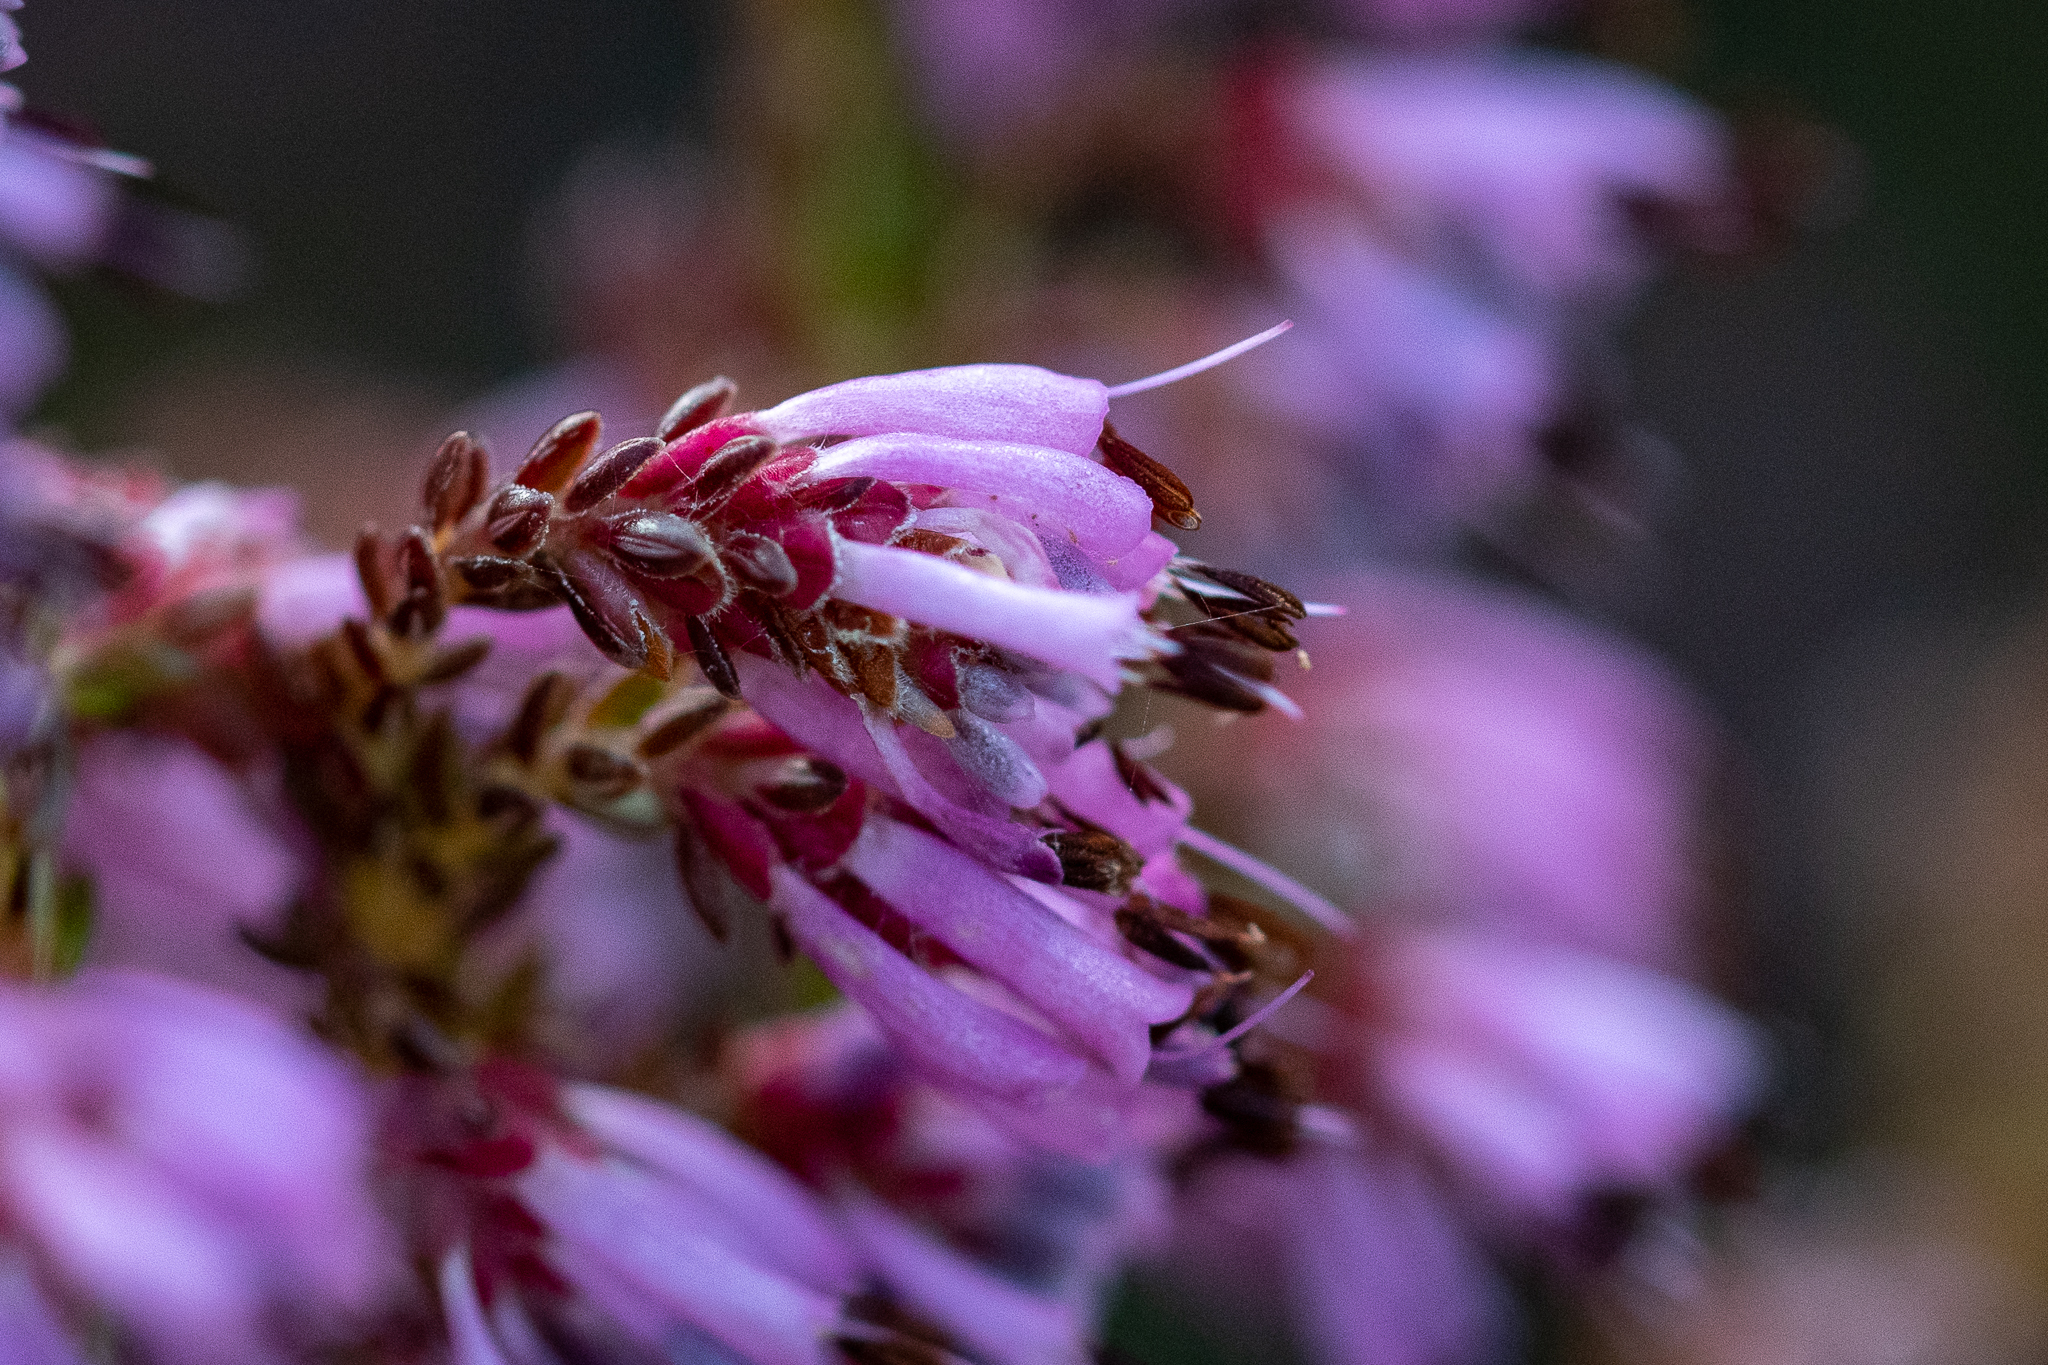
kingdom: Plantae
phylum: Tracheophyta
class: Magnoliopsida
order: Ericales
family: Ericaceae
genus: Erica
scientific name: Erica labialis
